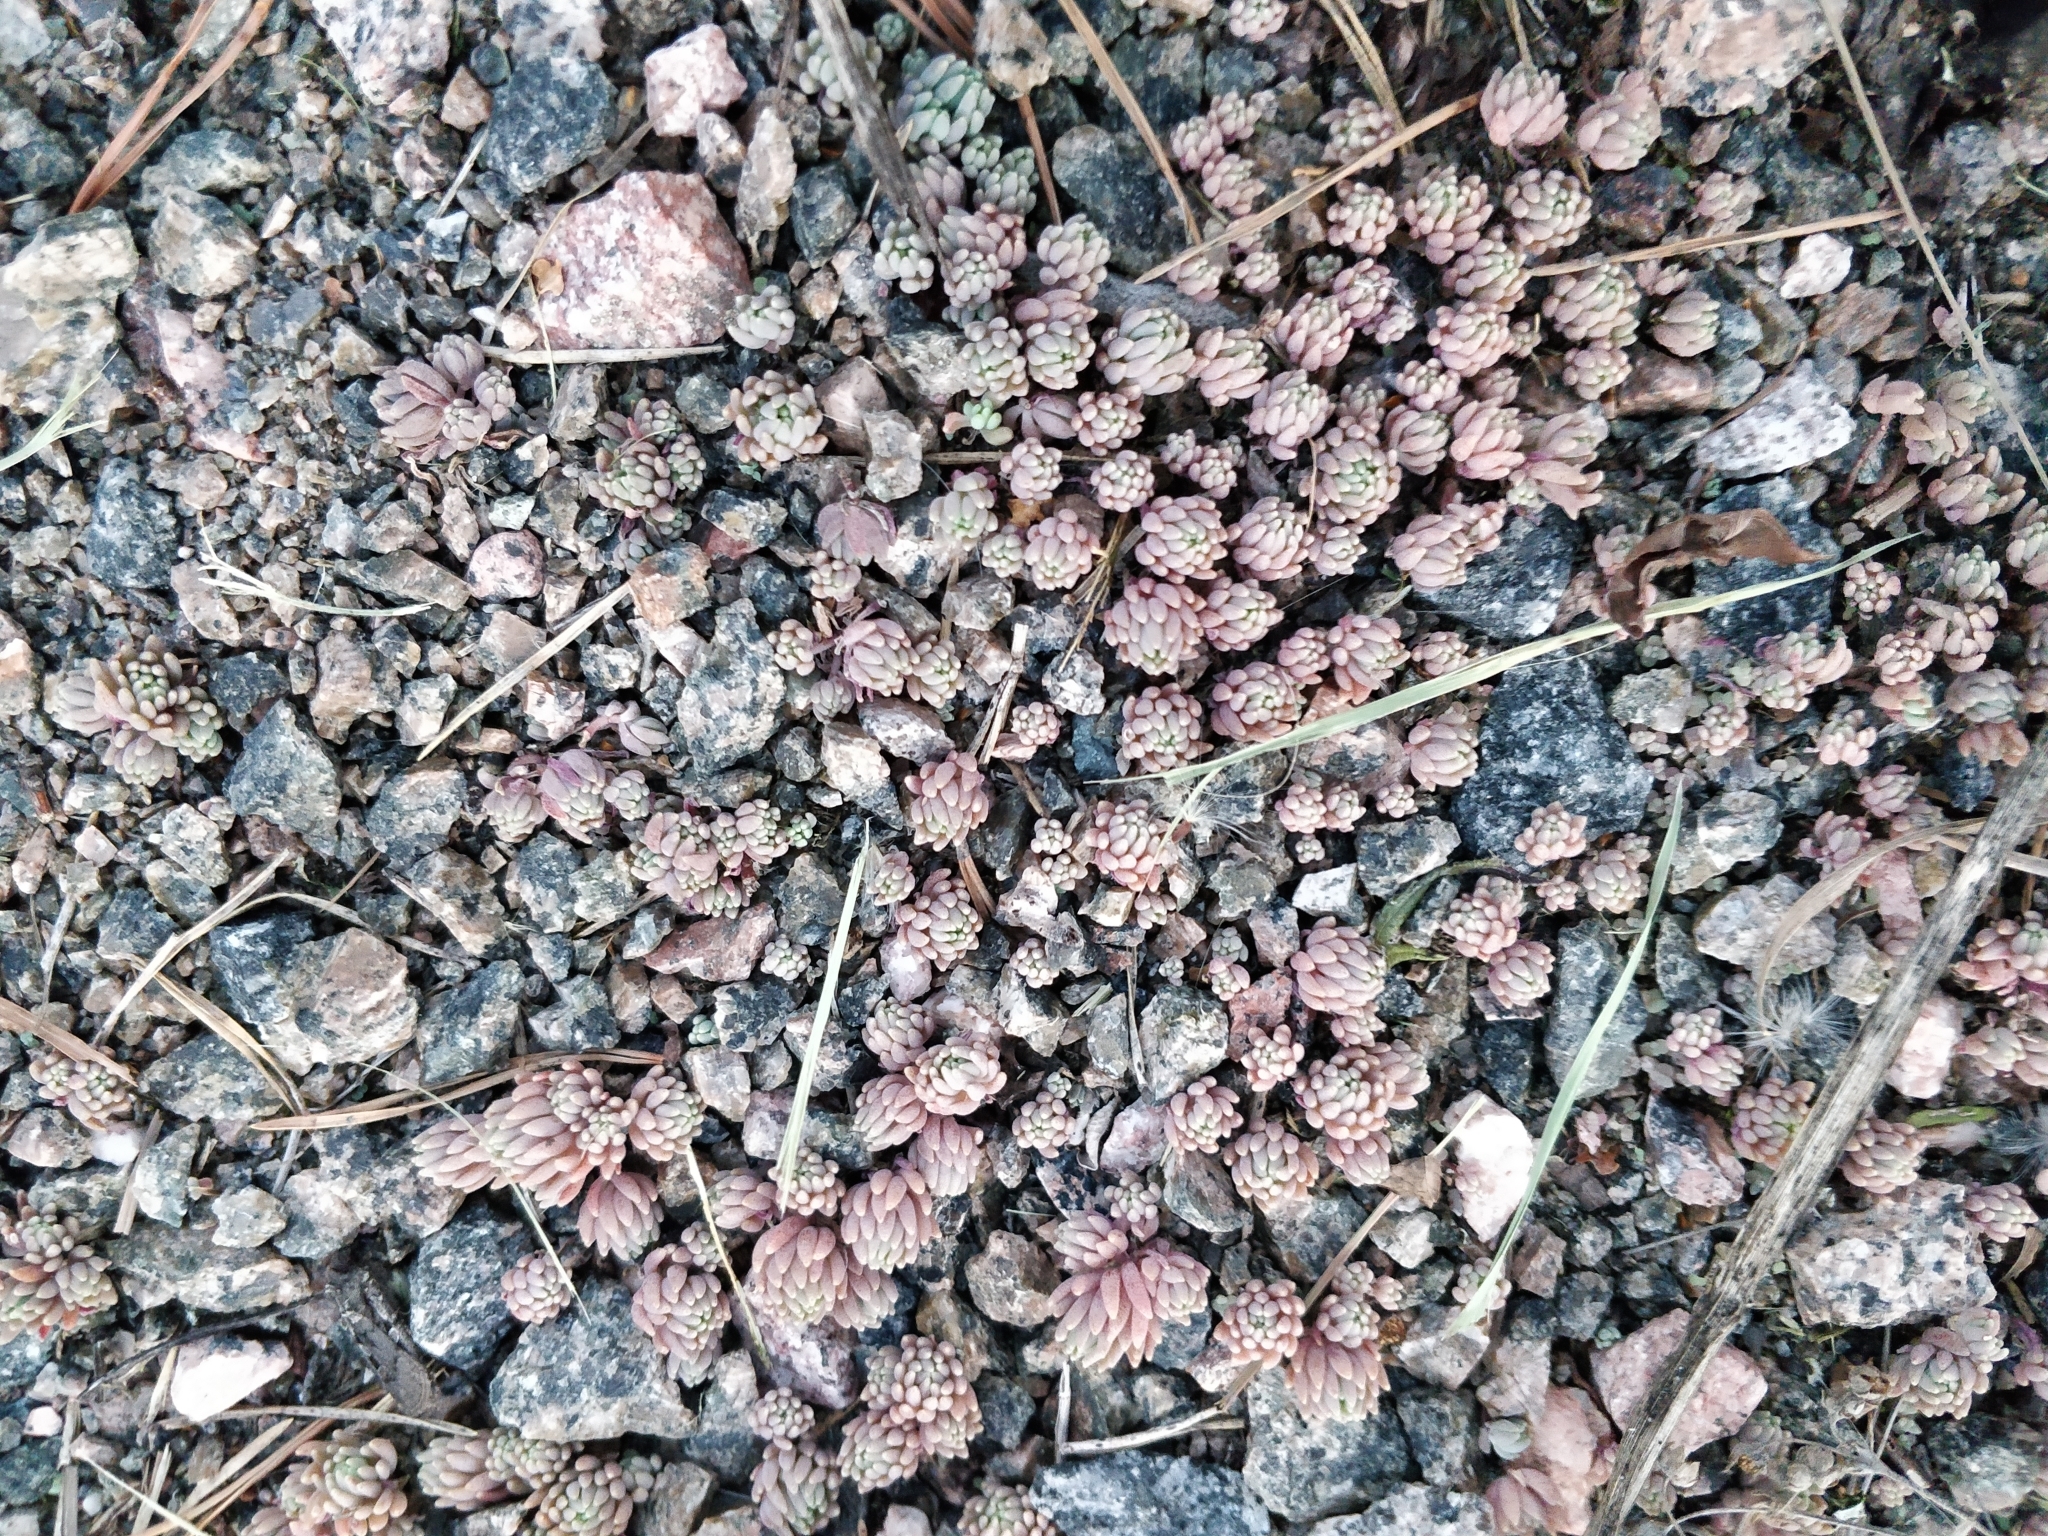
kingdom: Plantae
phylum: Tracheophyta
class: Magnoliopsida
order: Saxifragales
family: Crassulaceae
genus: Sedum
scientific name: Sedum hispanicum
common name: Spanish stonecrop
